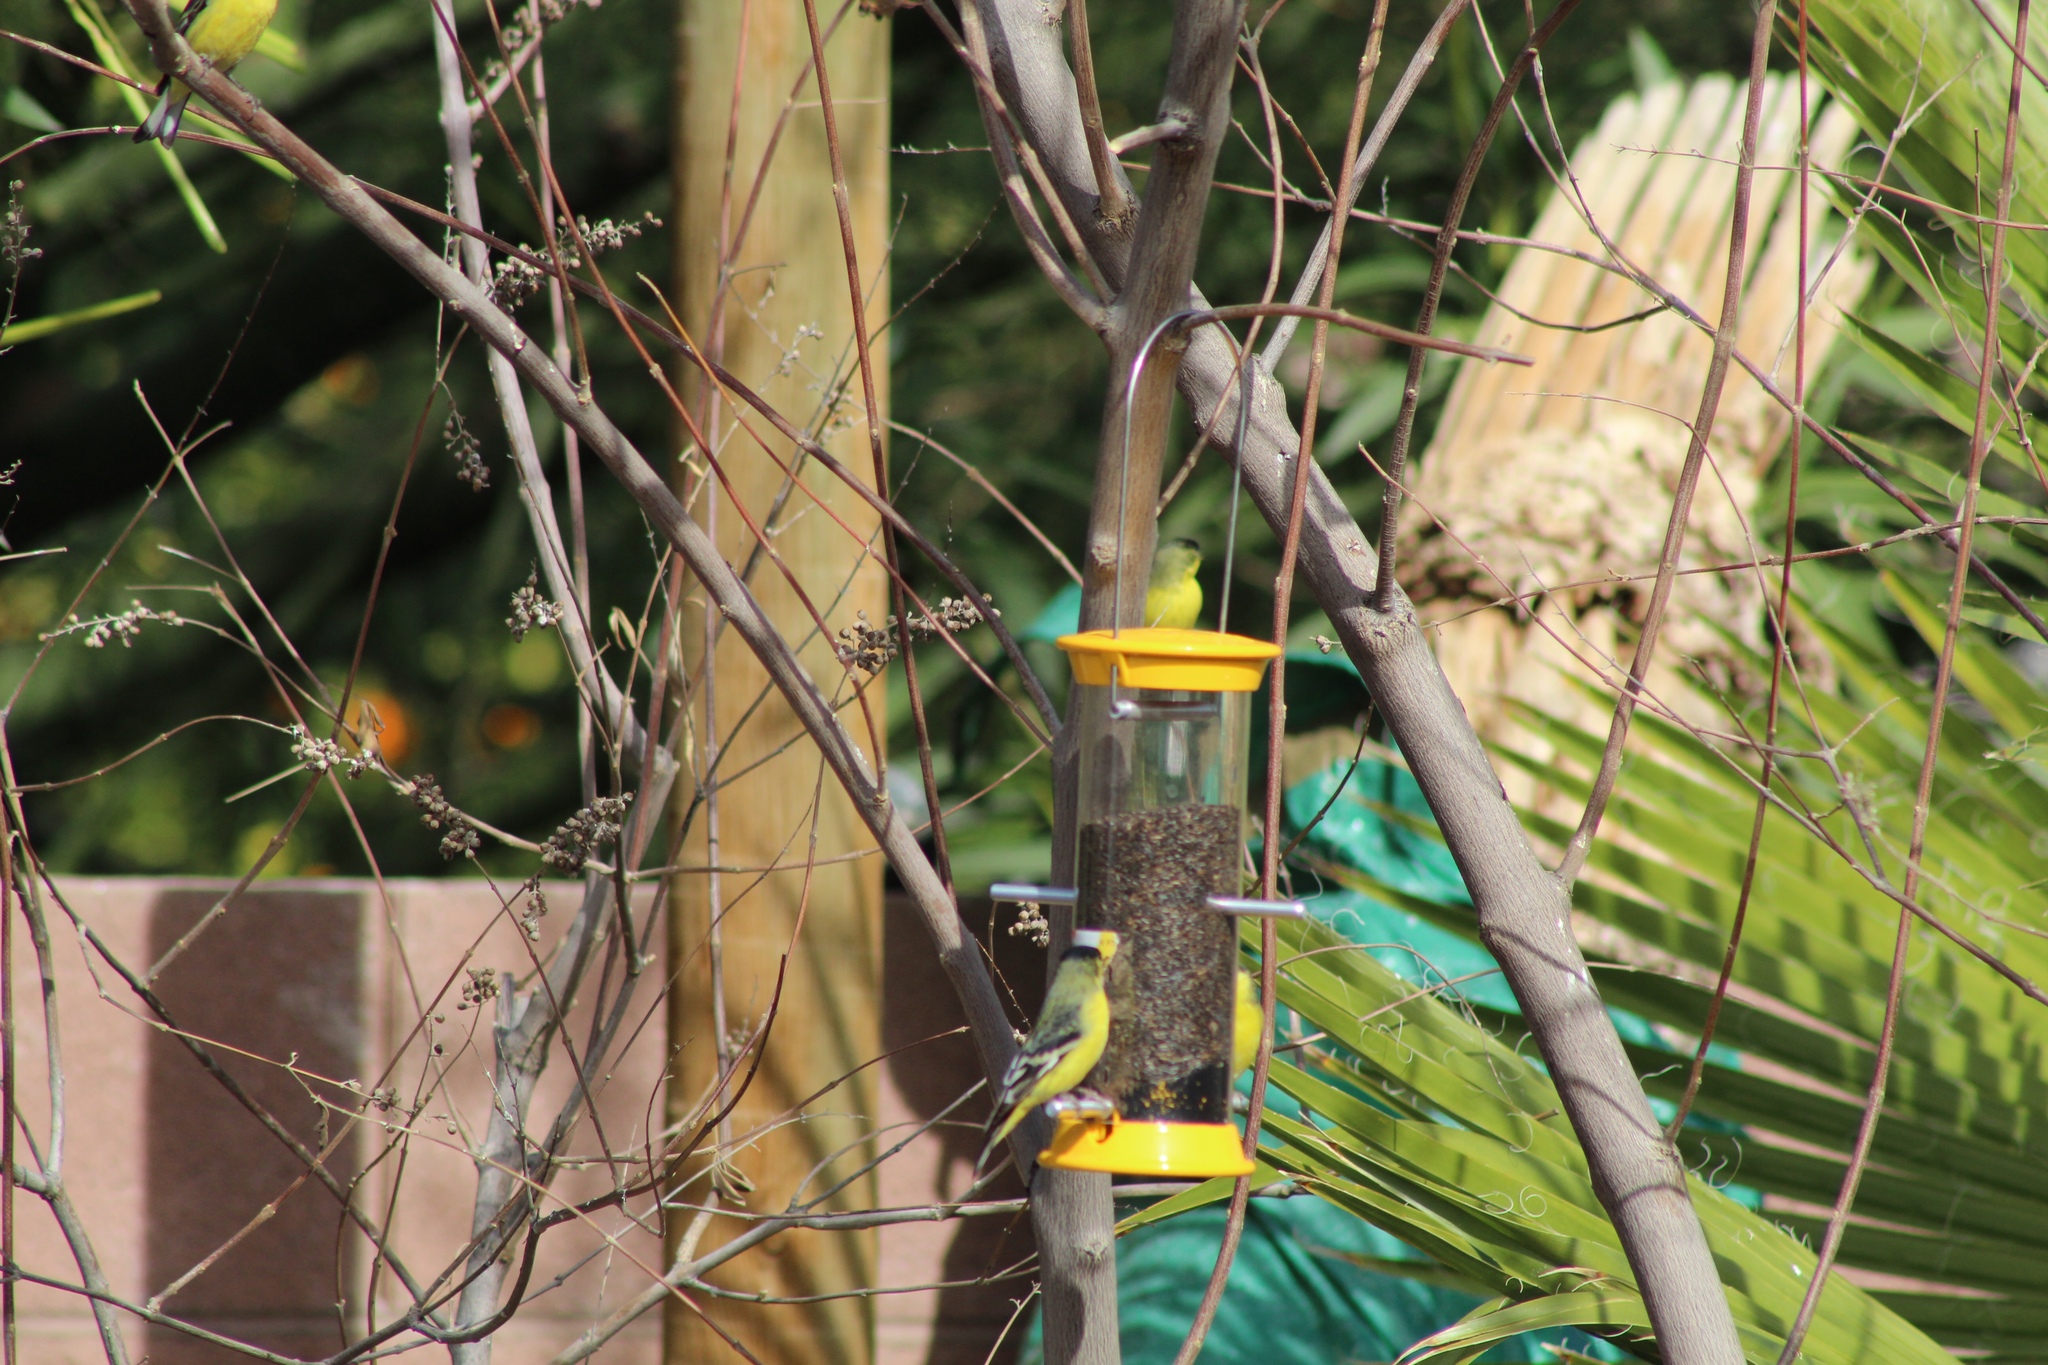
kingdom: Animalia
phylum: Chordata
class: Aves
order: Passeriformes
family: Fringillidae
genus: Spinus
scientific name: Spinus psaltria
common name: Lesser goldfinch
